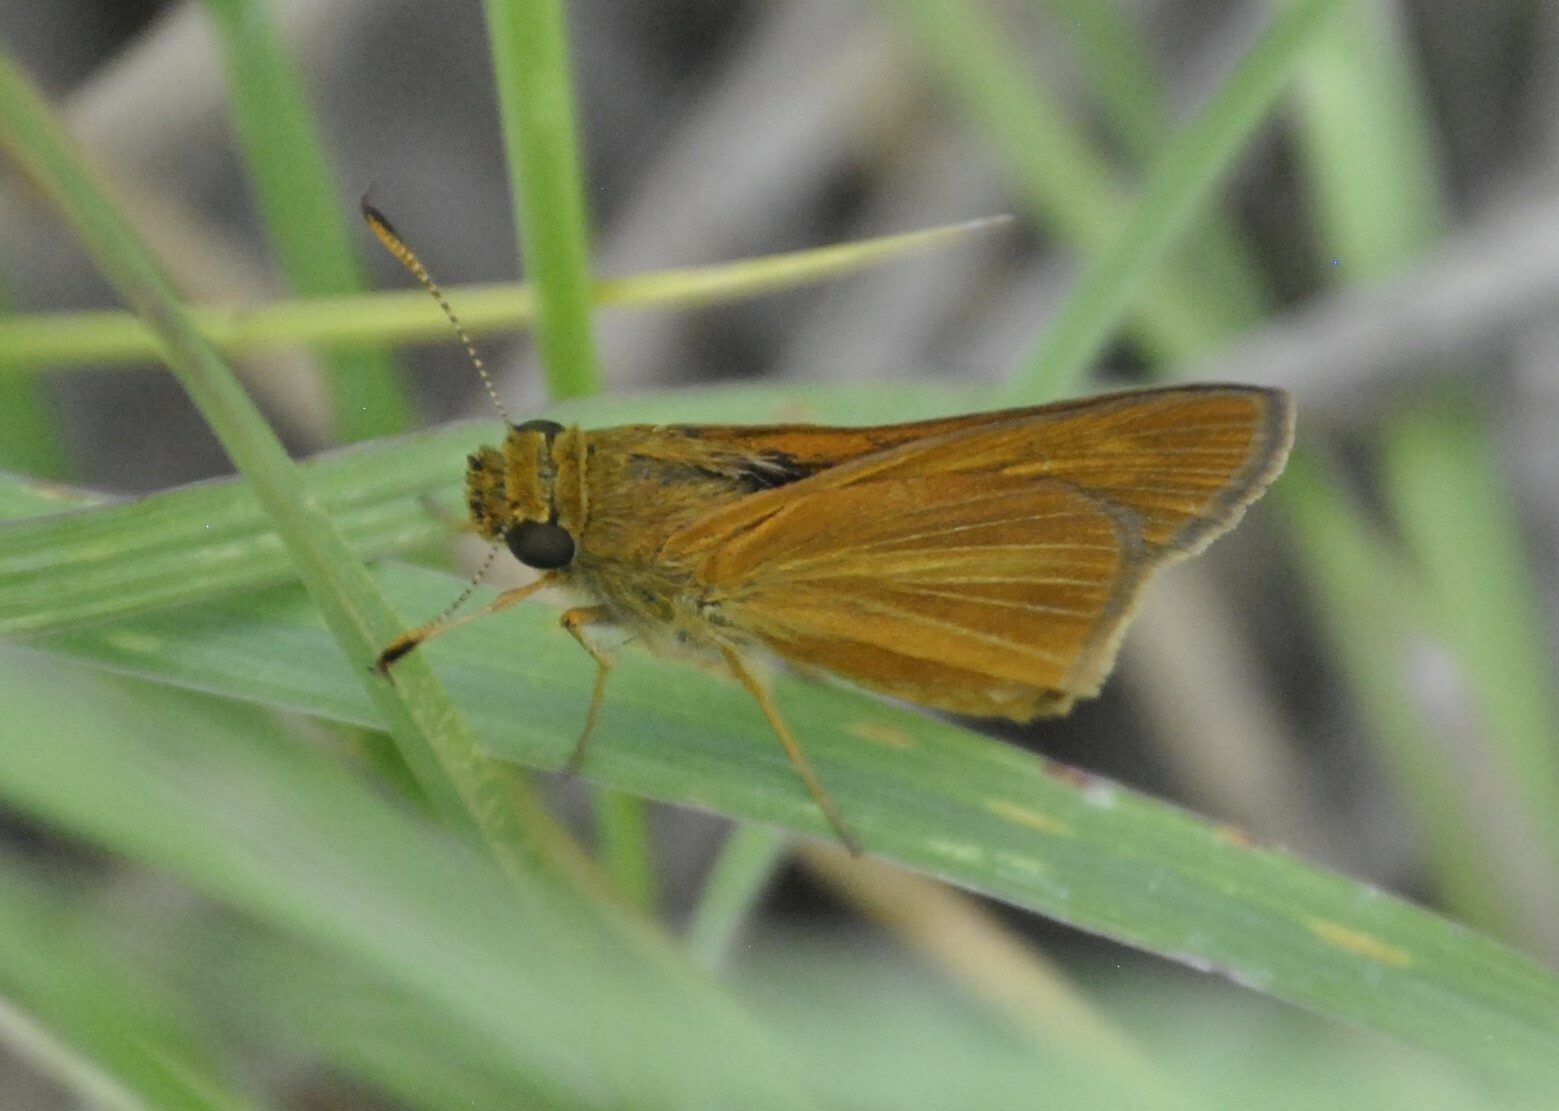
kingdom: Animalia
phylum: Arthropoda
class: Insecta
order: Lepidoptera
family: Hesperiidae
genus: Euphyes
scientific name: Euphyes dion
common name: Dion skipper
